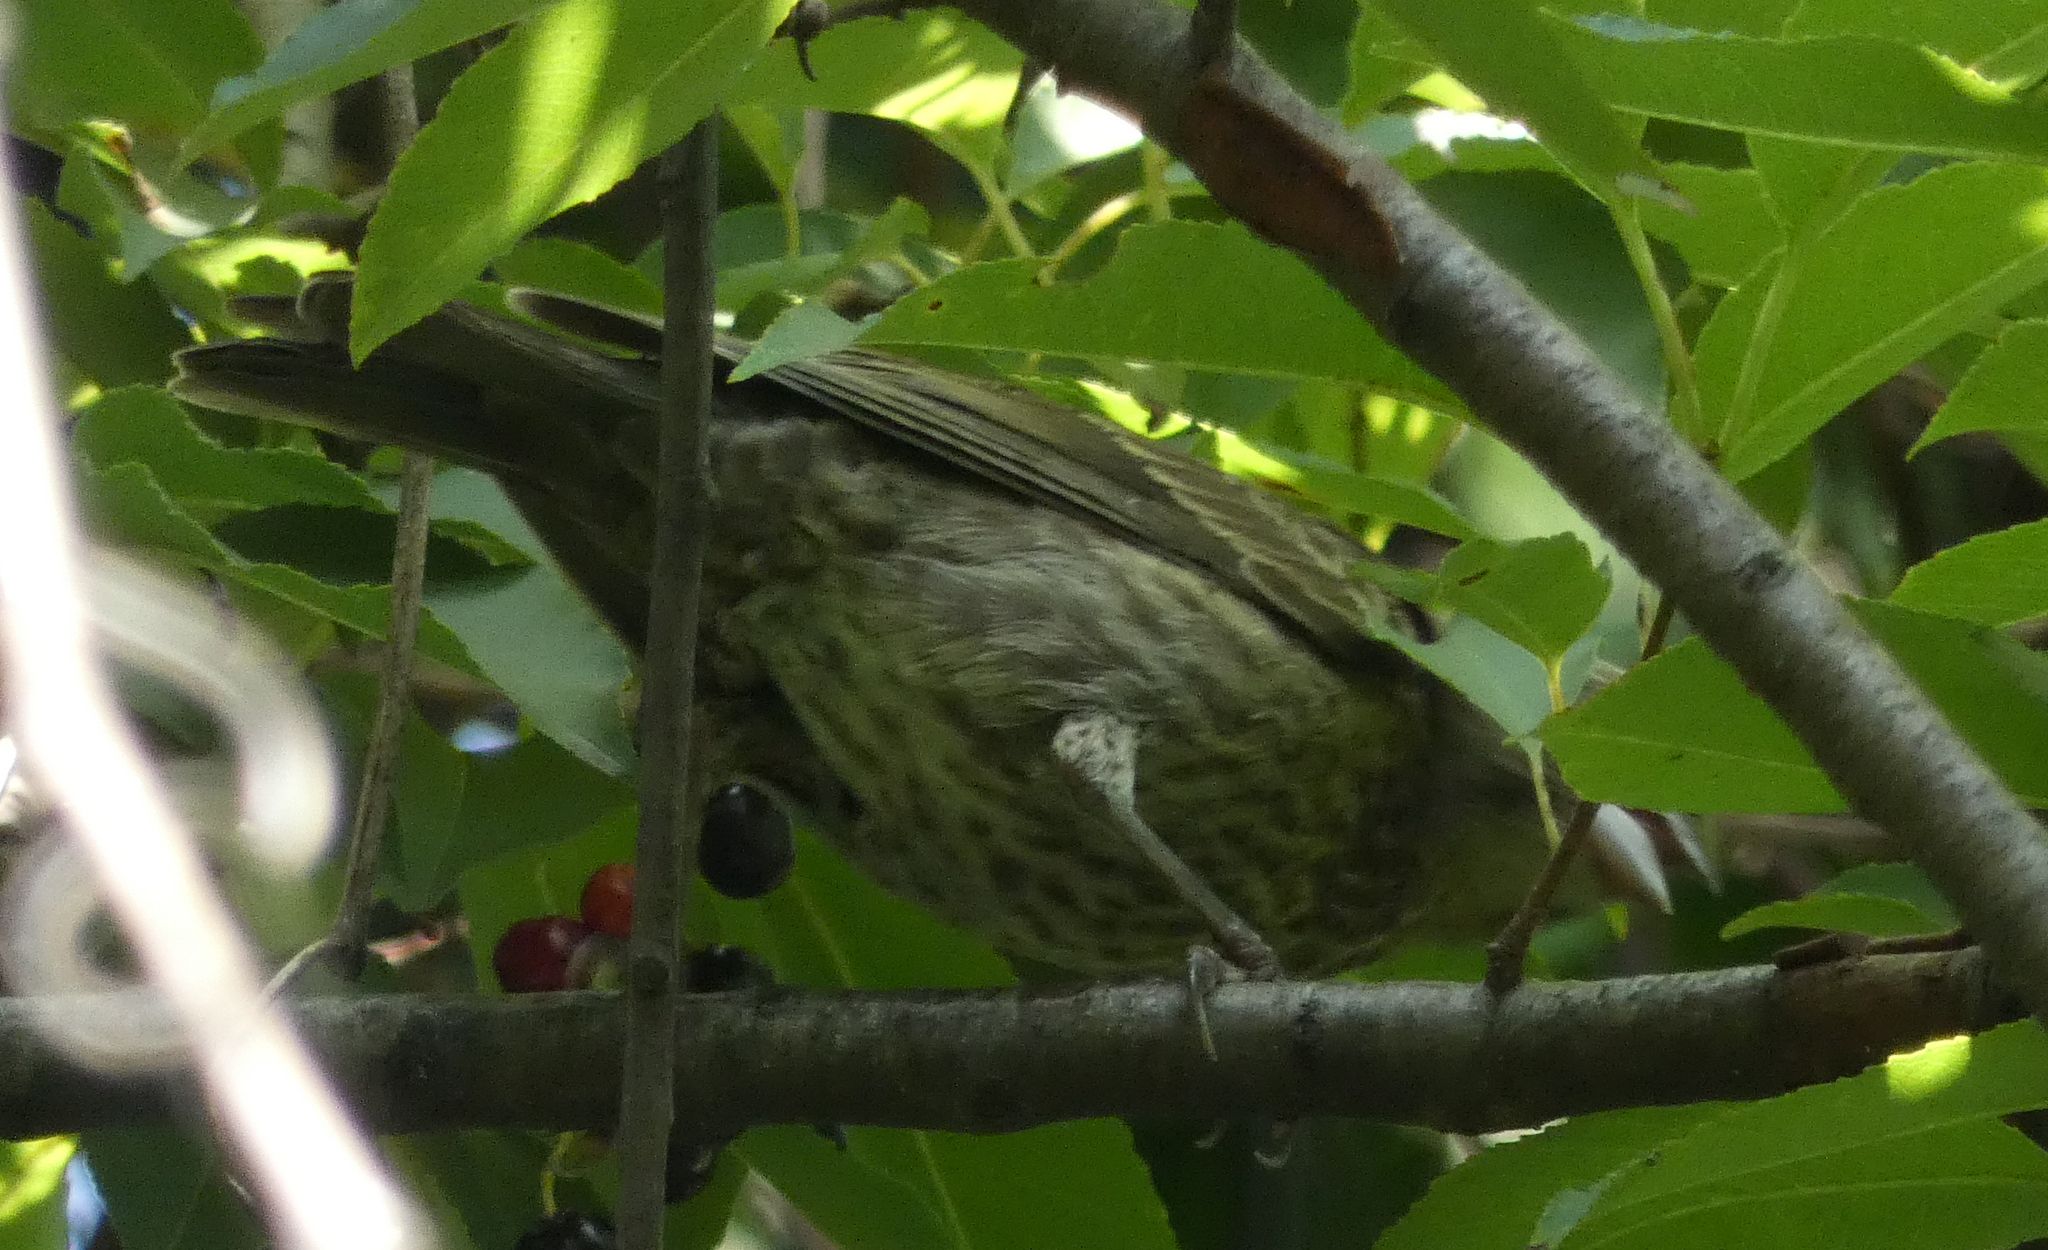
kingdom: Animalia
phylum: Chordata
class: Aves
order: Passeriformes
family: Icteridae
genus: Molothrus
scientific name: Molothrus ater
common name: Brown-headed cowbird
